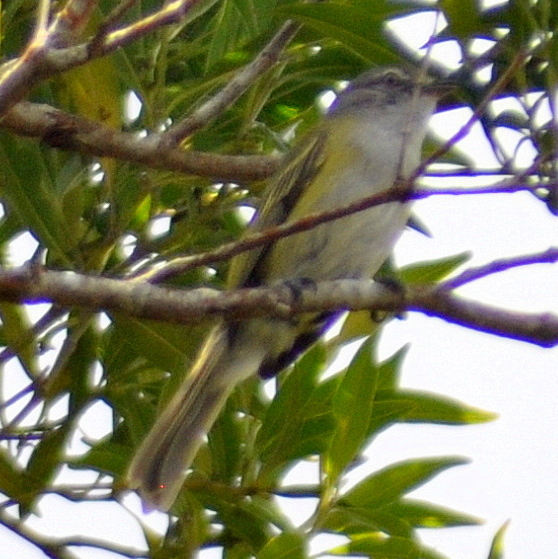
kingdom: Animalia
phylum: Chordata
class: Aves
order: Passeriformes
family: Tyrannidae
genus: Phyllomyias
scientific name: Phyllomyias griseocapilla
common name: Grey-capped tyrannulet
